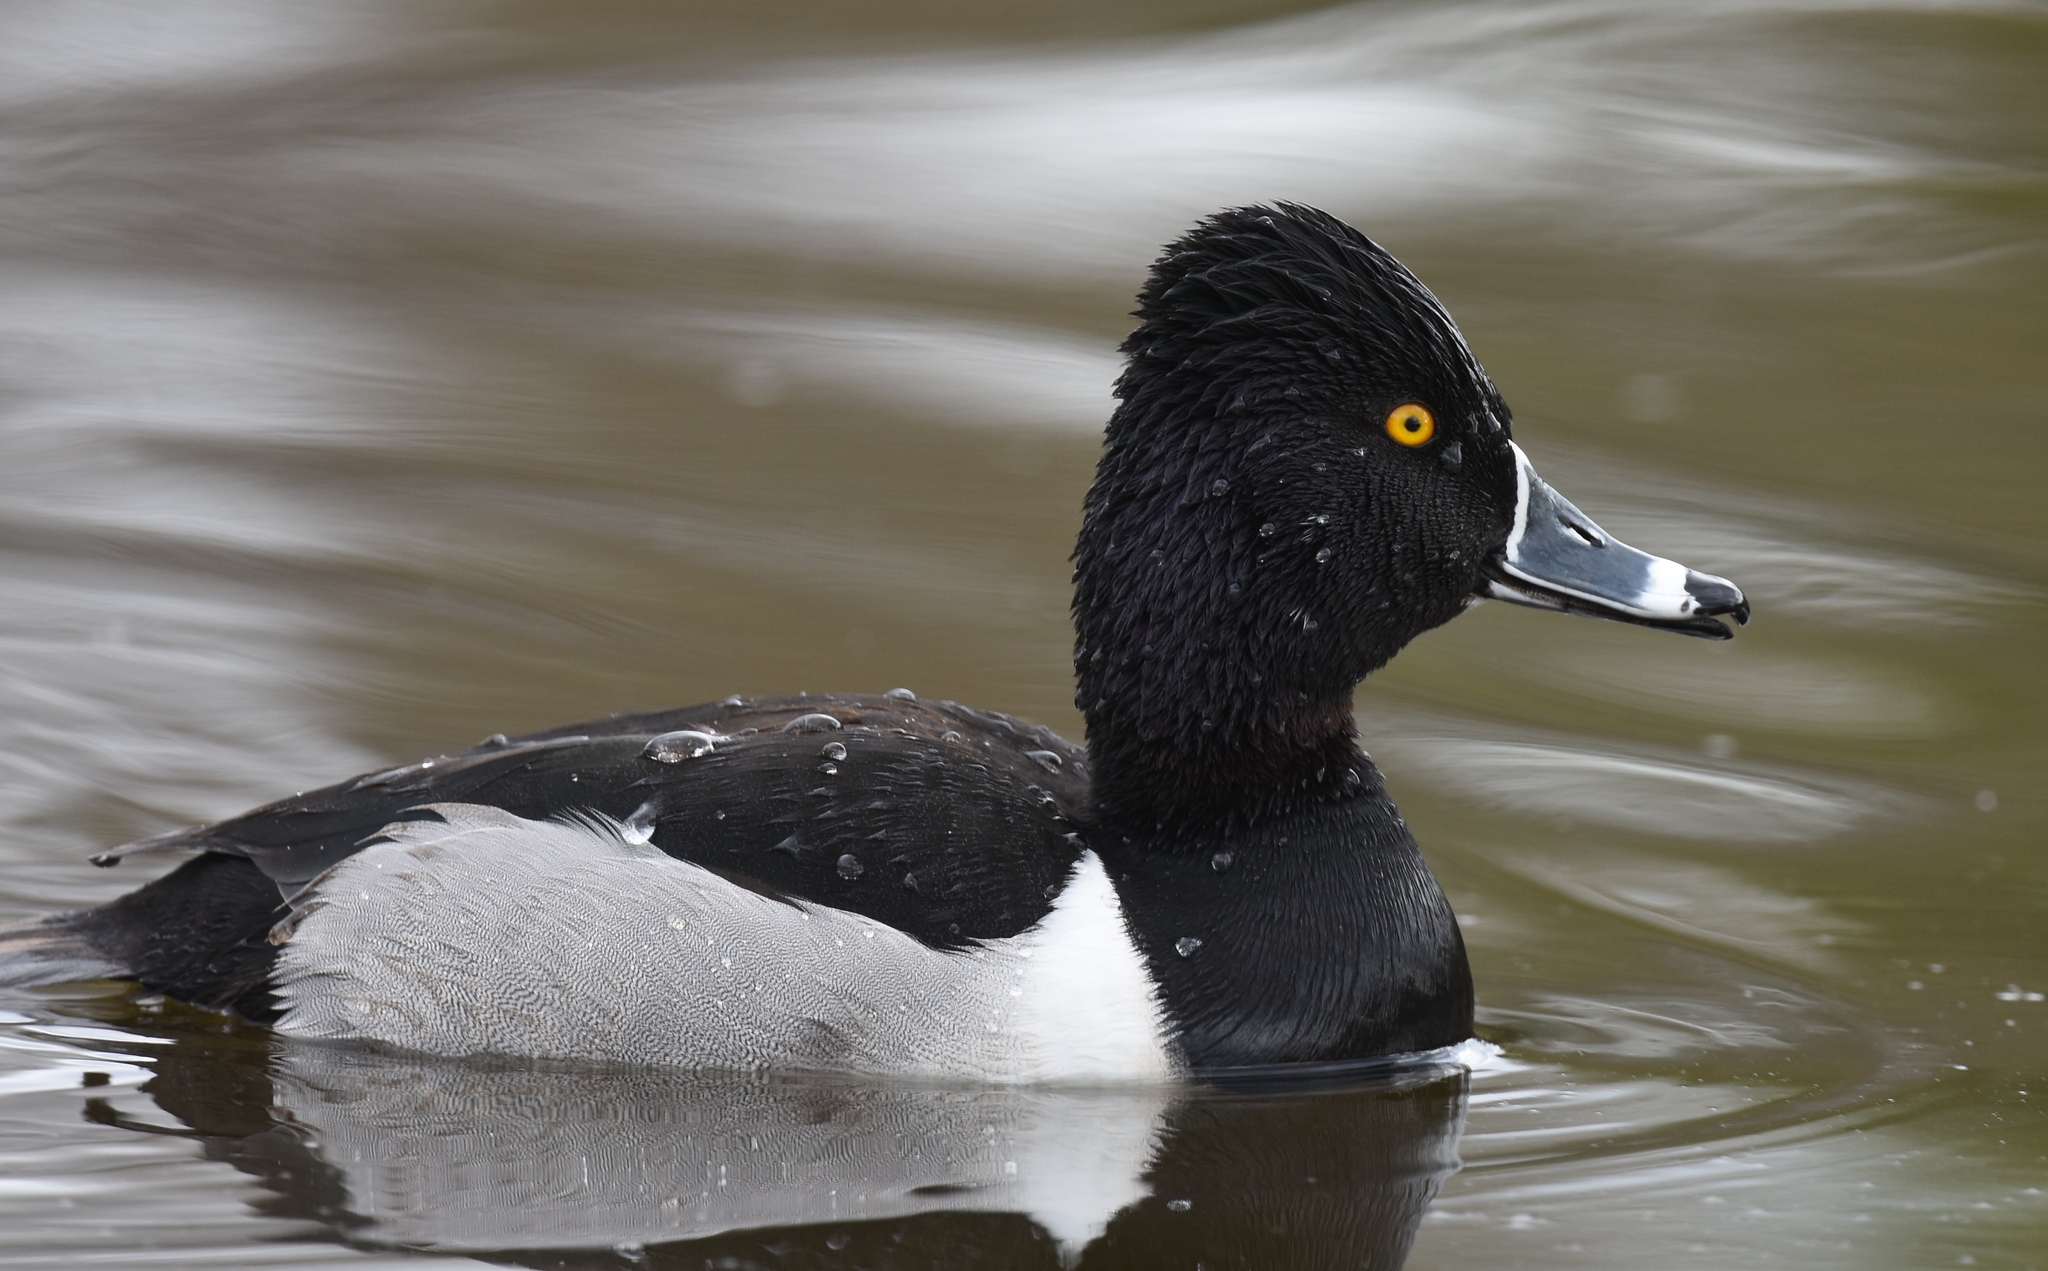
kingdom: Animalia
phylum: Chordata
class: Aves
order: Anseriformes
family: Anatidae
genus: Aythya
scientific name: Aythya collaris
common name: Ring-necked duck
